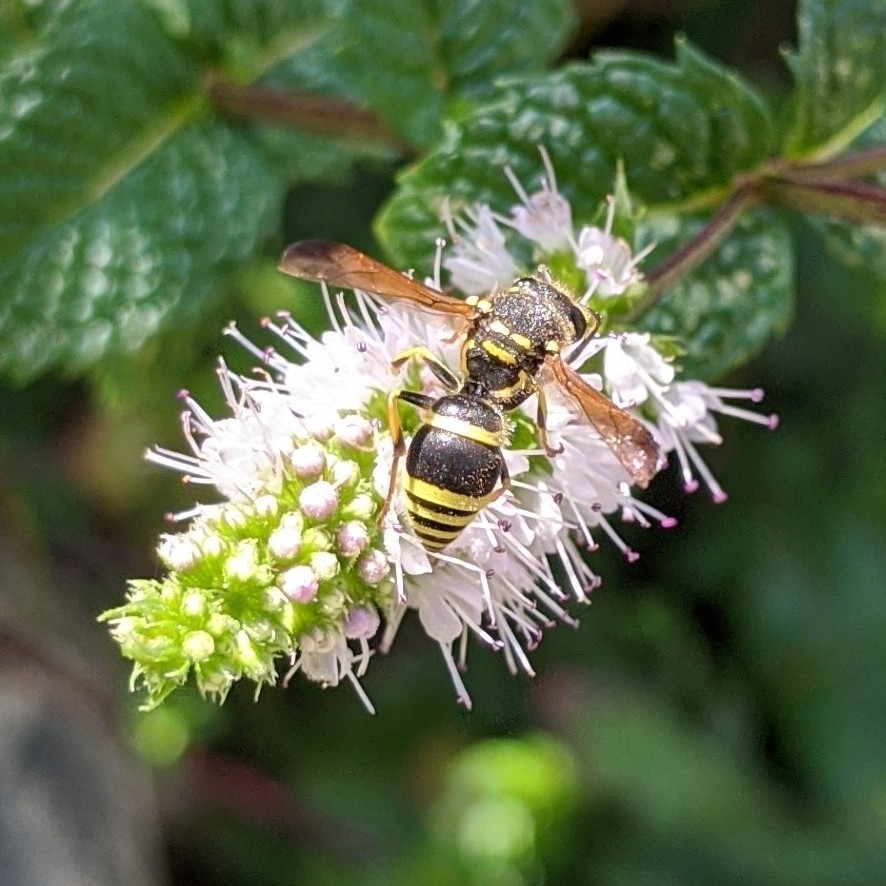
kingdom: Animalia
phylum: Arthropoda
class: Insecta
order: Hymenoptera
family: Vespidae
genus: Ancistrocerus
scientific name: Ancistrocerus catskill
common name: Vespid wasp
